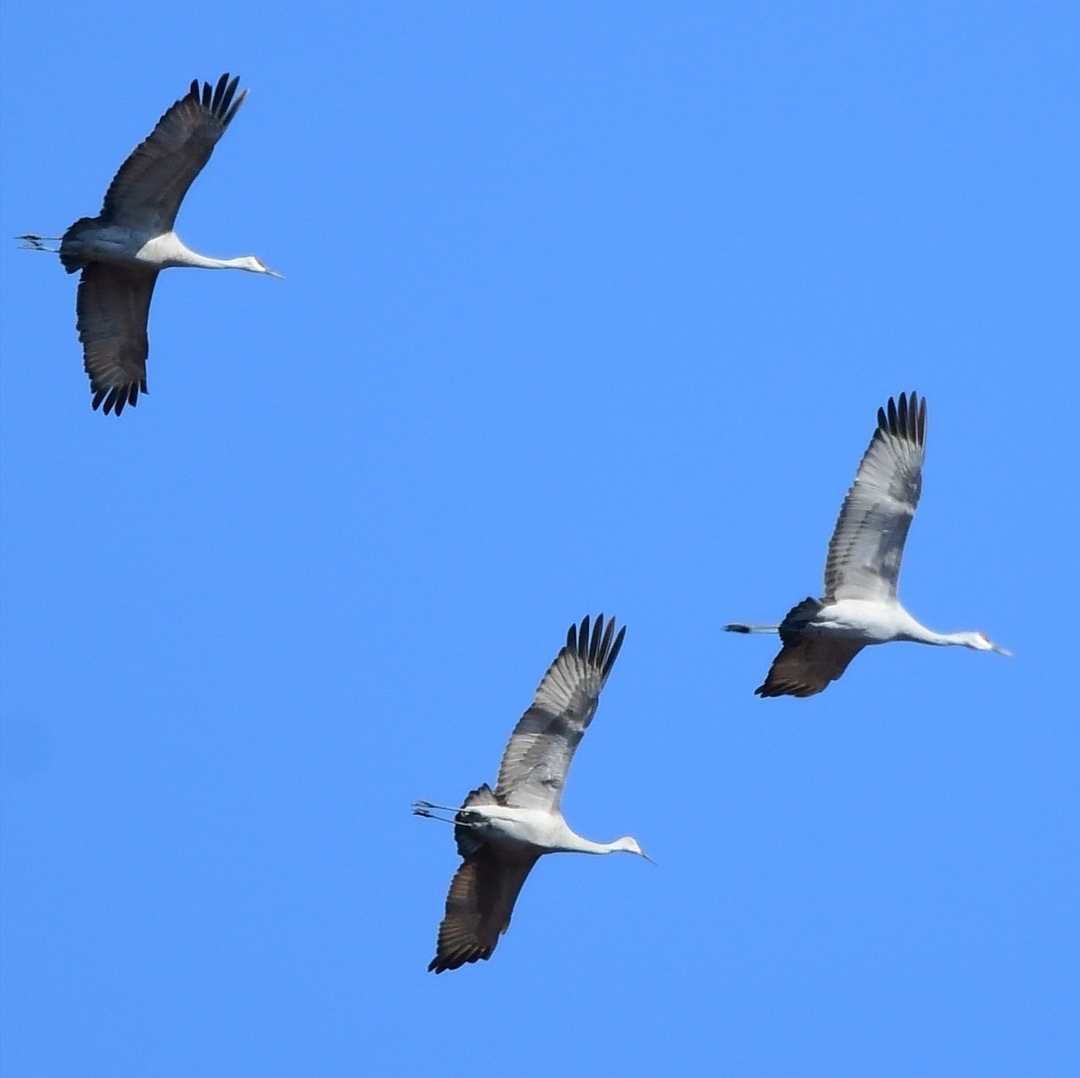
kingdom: Animalia
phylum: Chordata
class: Aves
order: Gruiformes
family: Gruidae
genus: Grus
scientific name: Grus canadensis
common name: Sandhill crane
